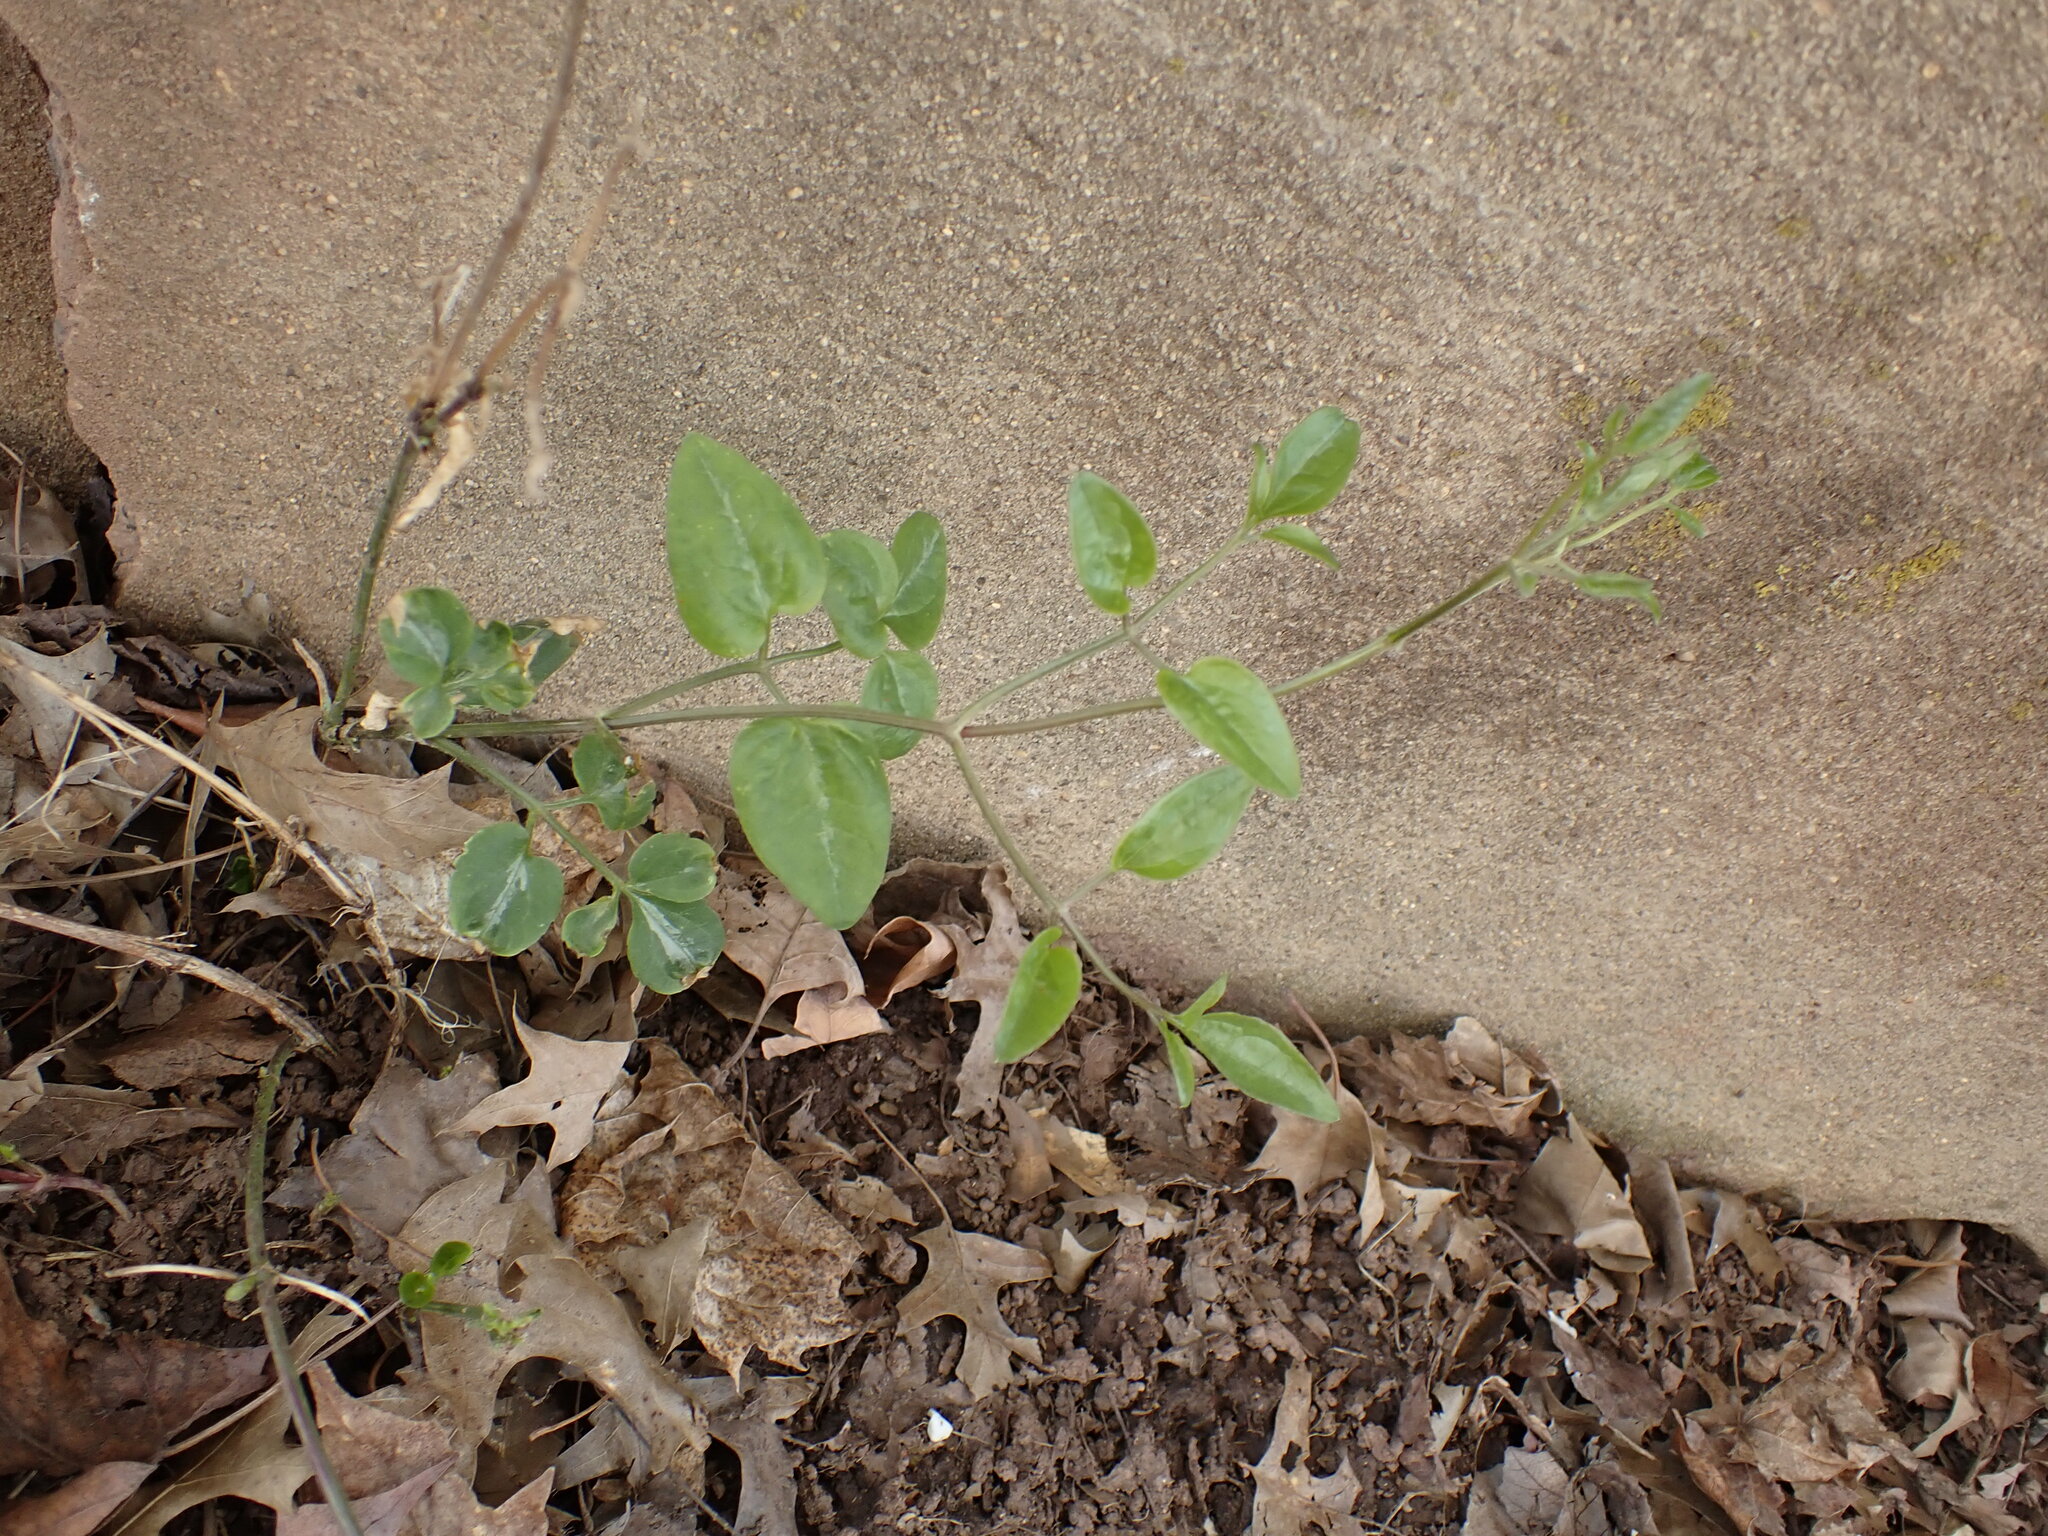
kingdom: Plantae
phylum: Tracheophyta
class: Magnoliopsida
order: Ranunculales
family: Ranunculaceae
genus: Clematis
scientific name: Clematis terniflora
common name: Sweet autumn clematis
